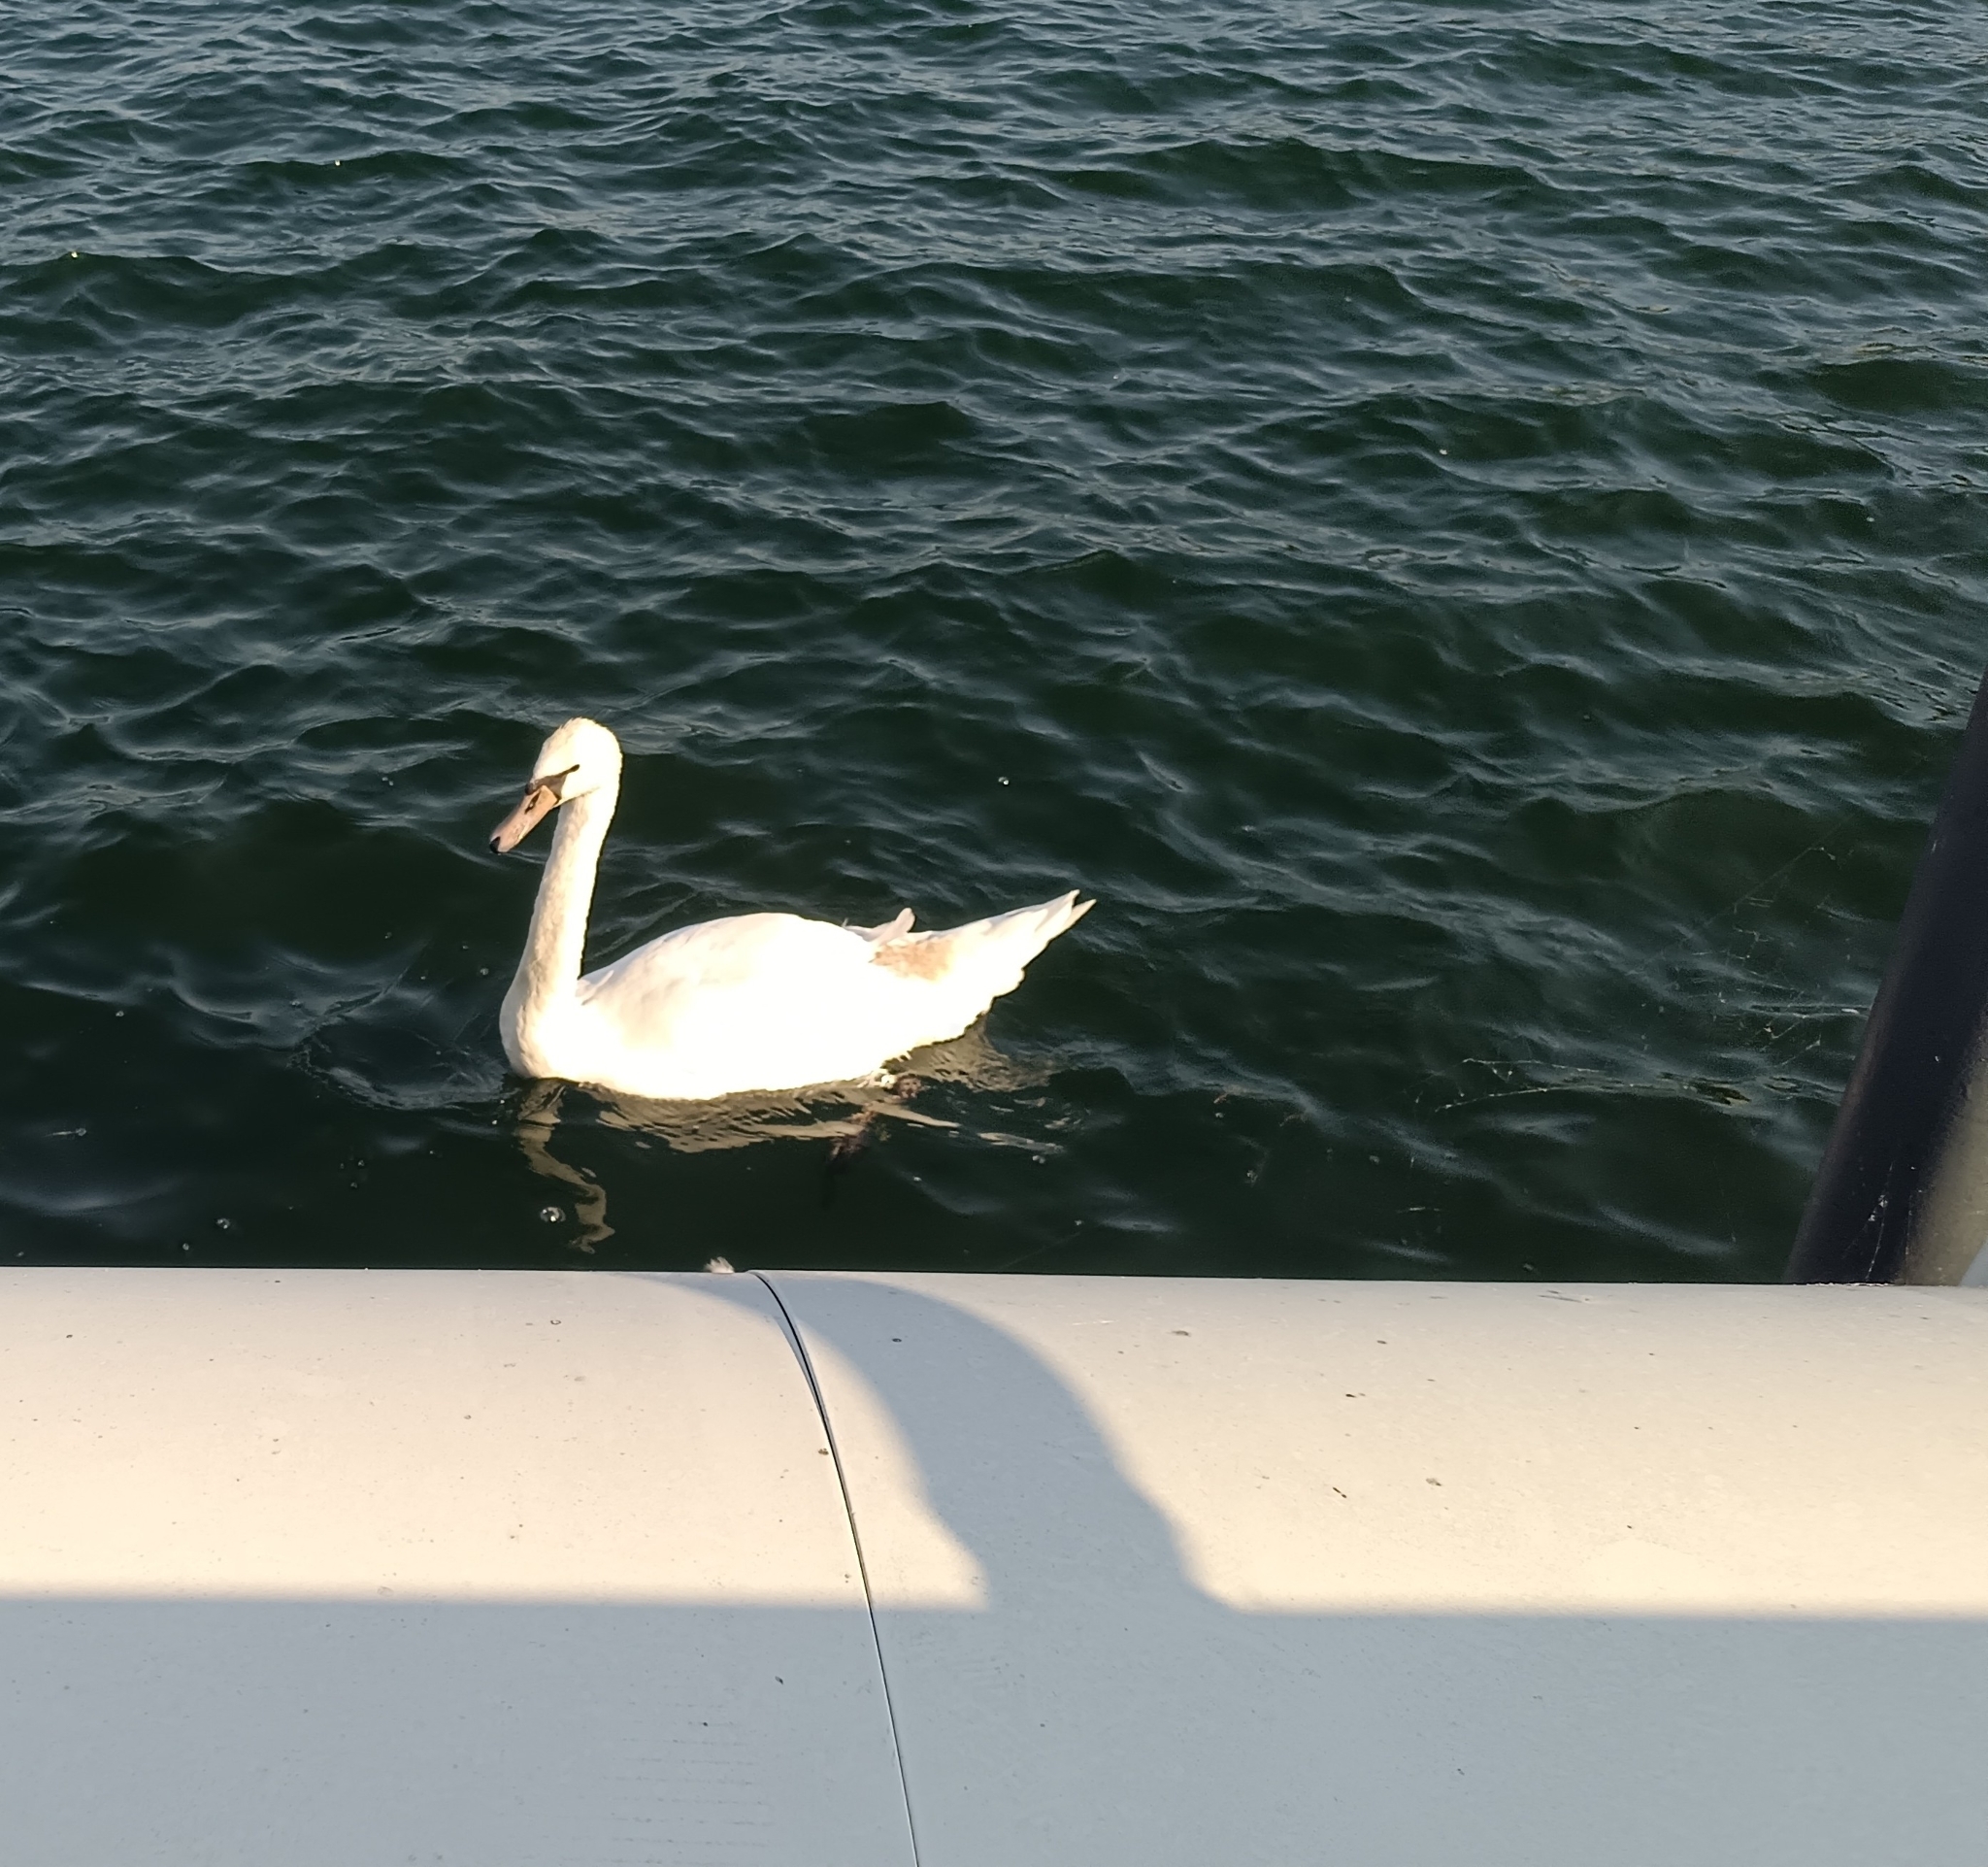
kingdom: Animalia
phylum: Chordata
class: Aves
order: Anseriformes
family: Anatidae
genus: Cygnus
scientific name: Cygnus olor
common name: Mute swan
